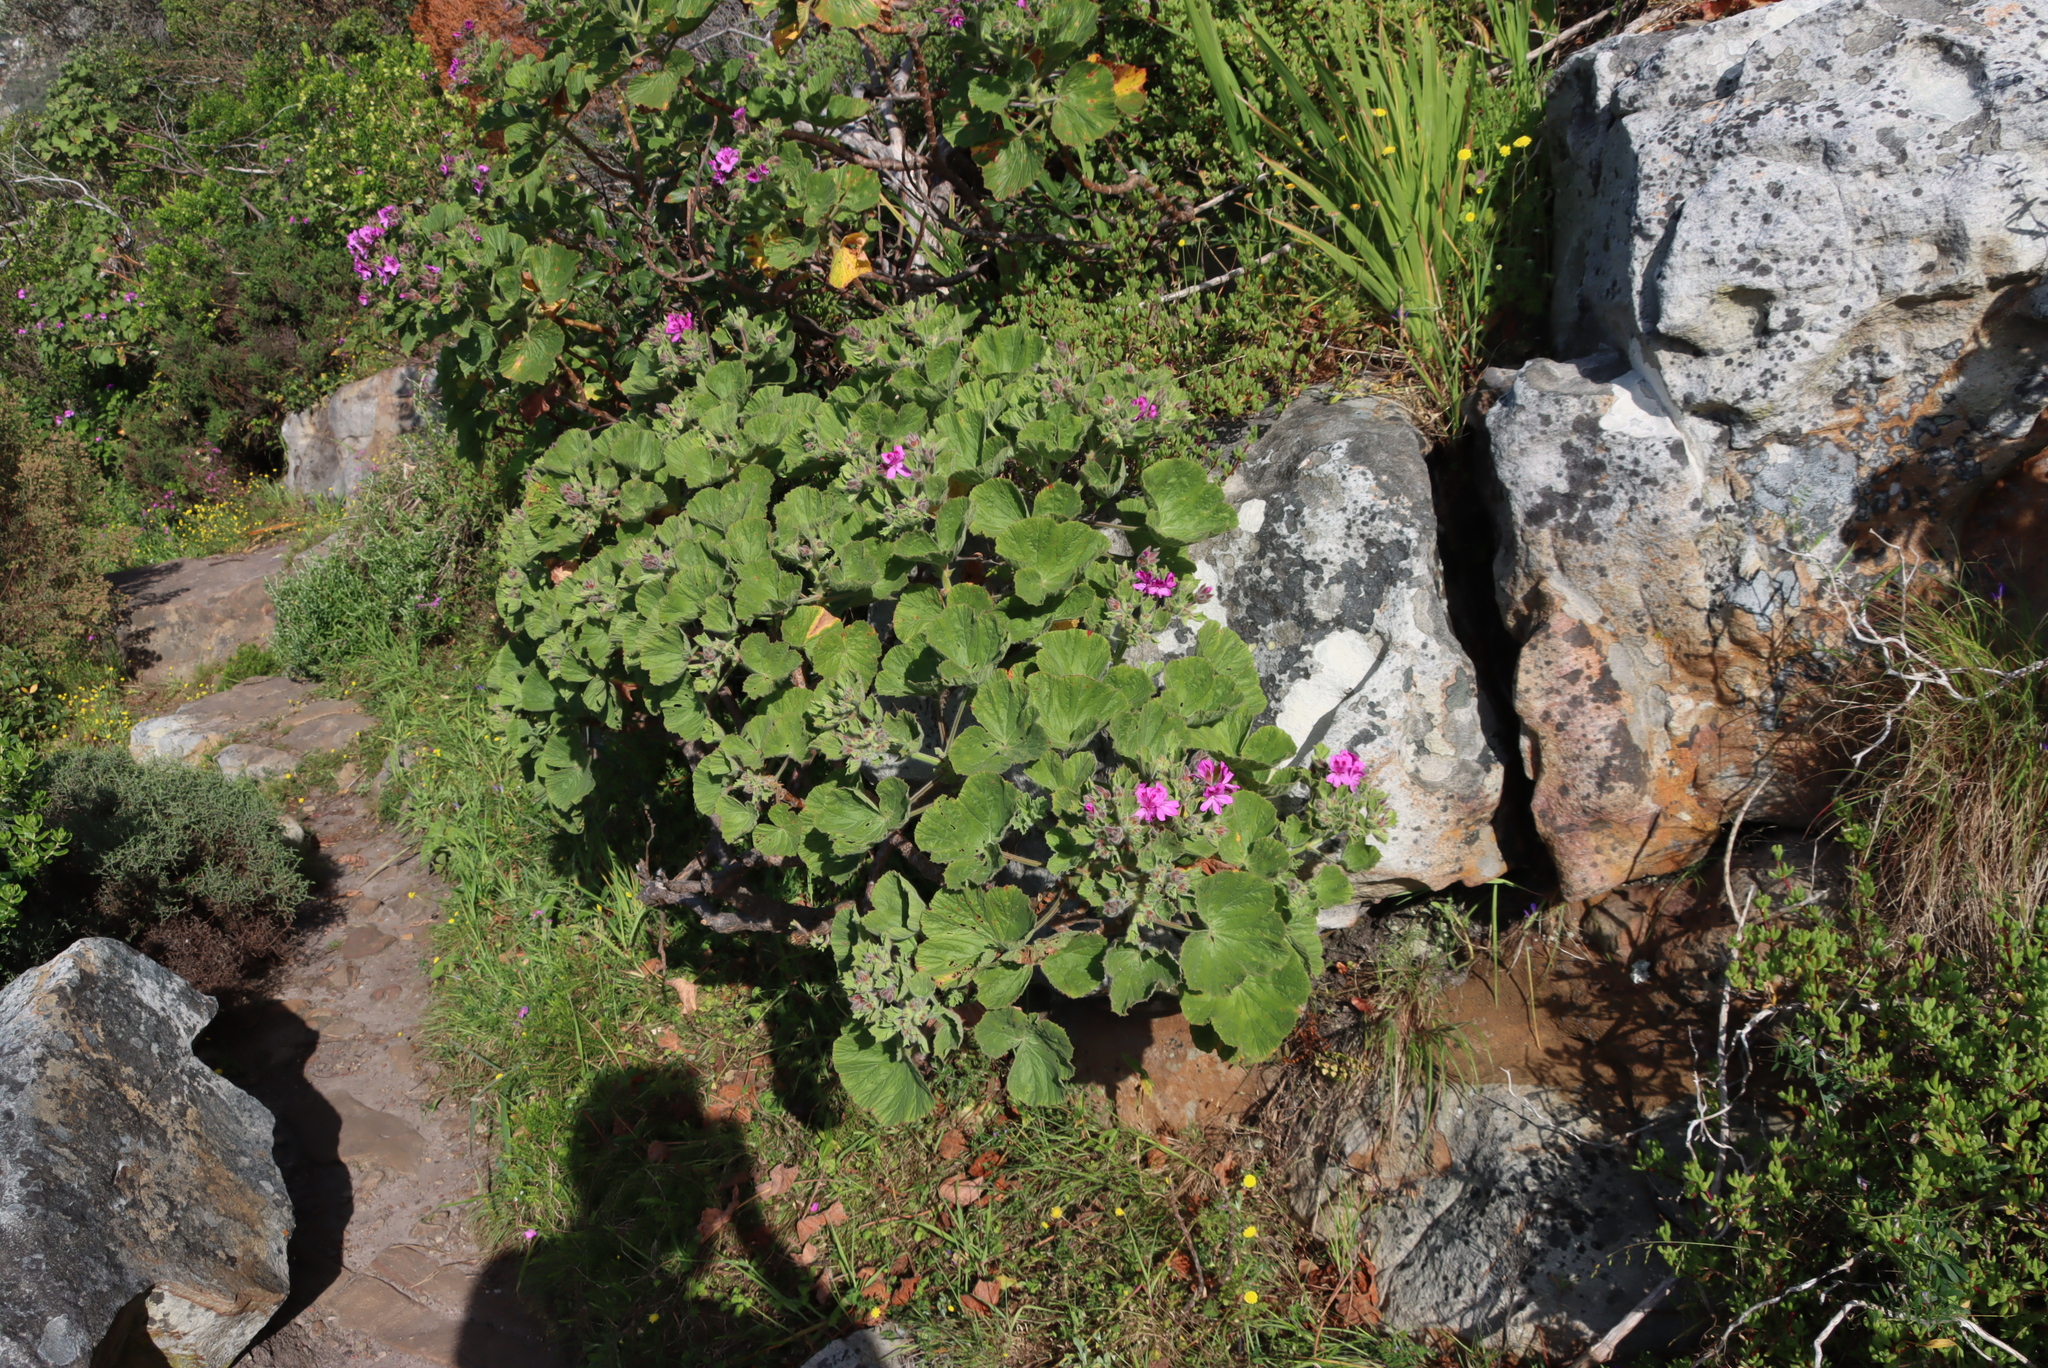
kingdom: Plantae
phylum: Tracheophyta
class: Magnoliopsida
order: Geraniales
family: Geraniaceae
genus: Pelargonium
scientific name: Pelargonium cucullatum
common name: Tree pelargonium
